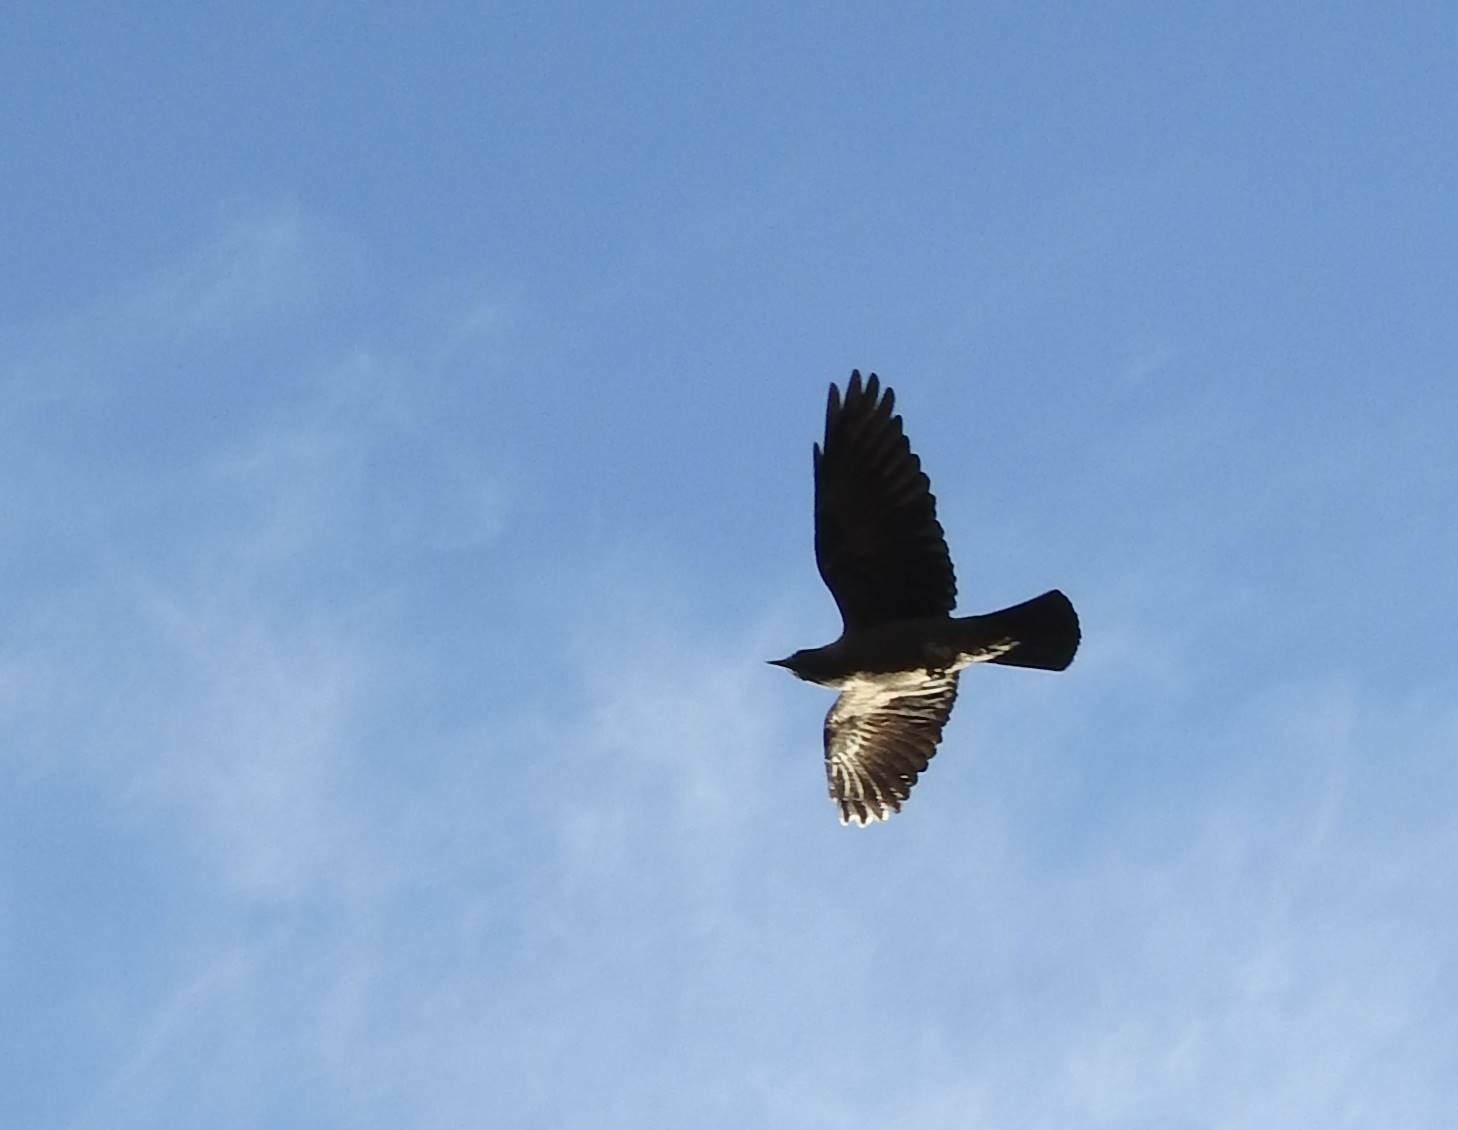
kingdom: Animalia
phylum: Chordata
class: Aves
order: Passeriformes
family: Corvidae
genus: Coloeus
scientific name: Coloeus monedula
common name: Western jackdaw
